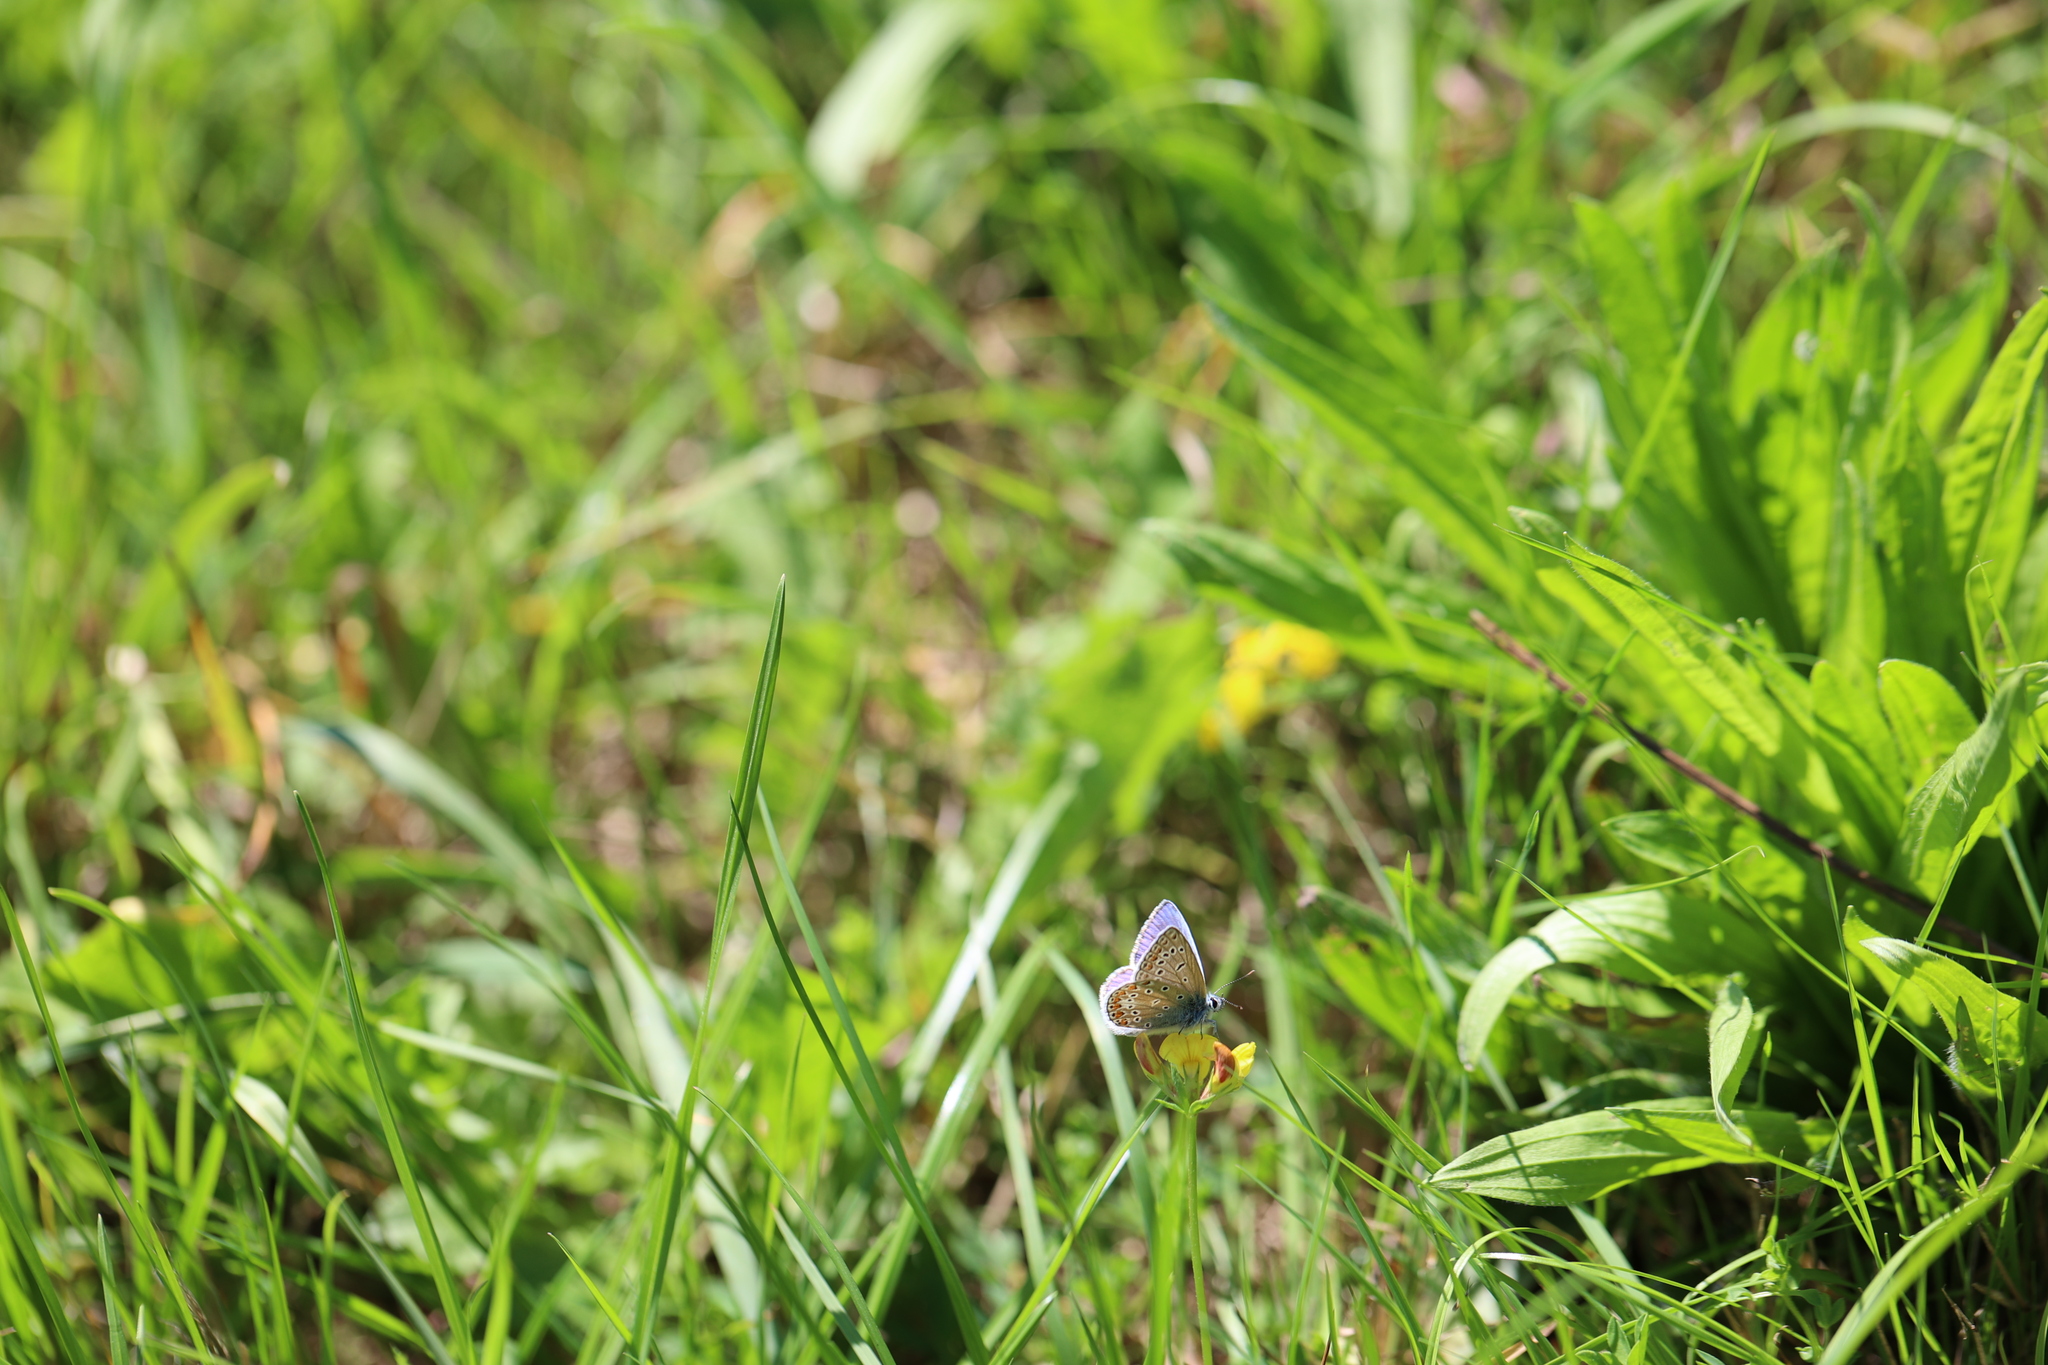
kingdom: Animalia
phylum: Arthropoda
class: Insecta
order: Lepidoptera
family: Lycaenidae
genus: Polyommatus
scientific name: Polyommatus icarus
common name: Common blue
